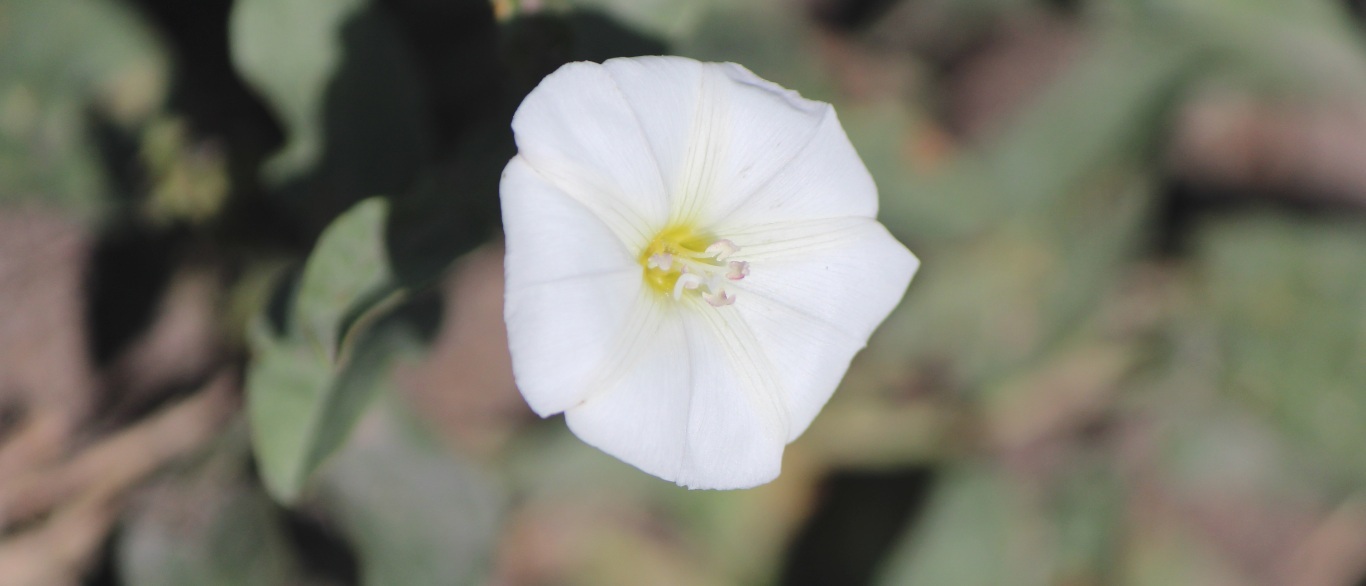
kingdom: Plantae
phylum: Tracheophyta
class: Magnoliopsida
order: Solanales
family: Convolvulaceae
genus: Convolvulus
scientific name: Convolvulus arvensis
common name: Field bindweed
